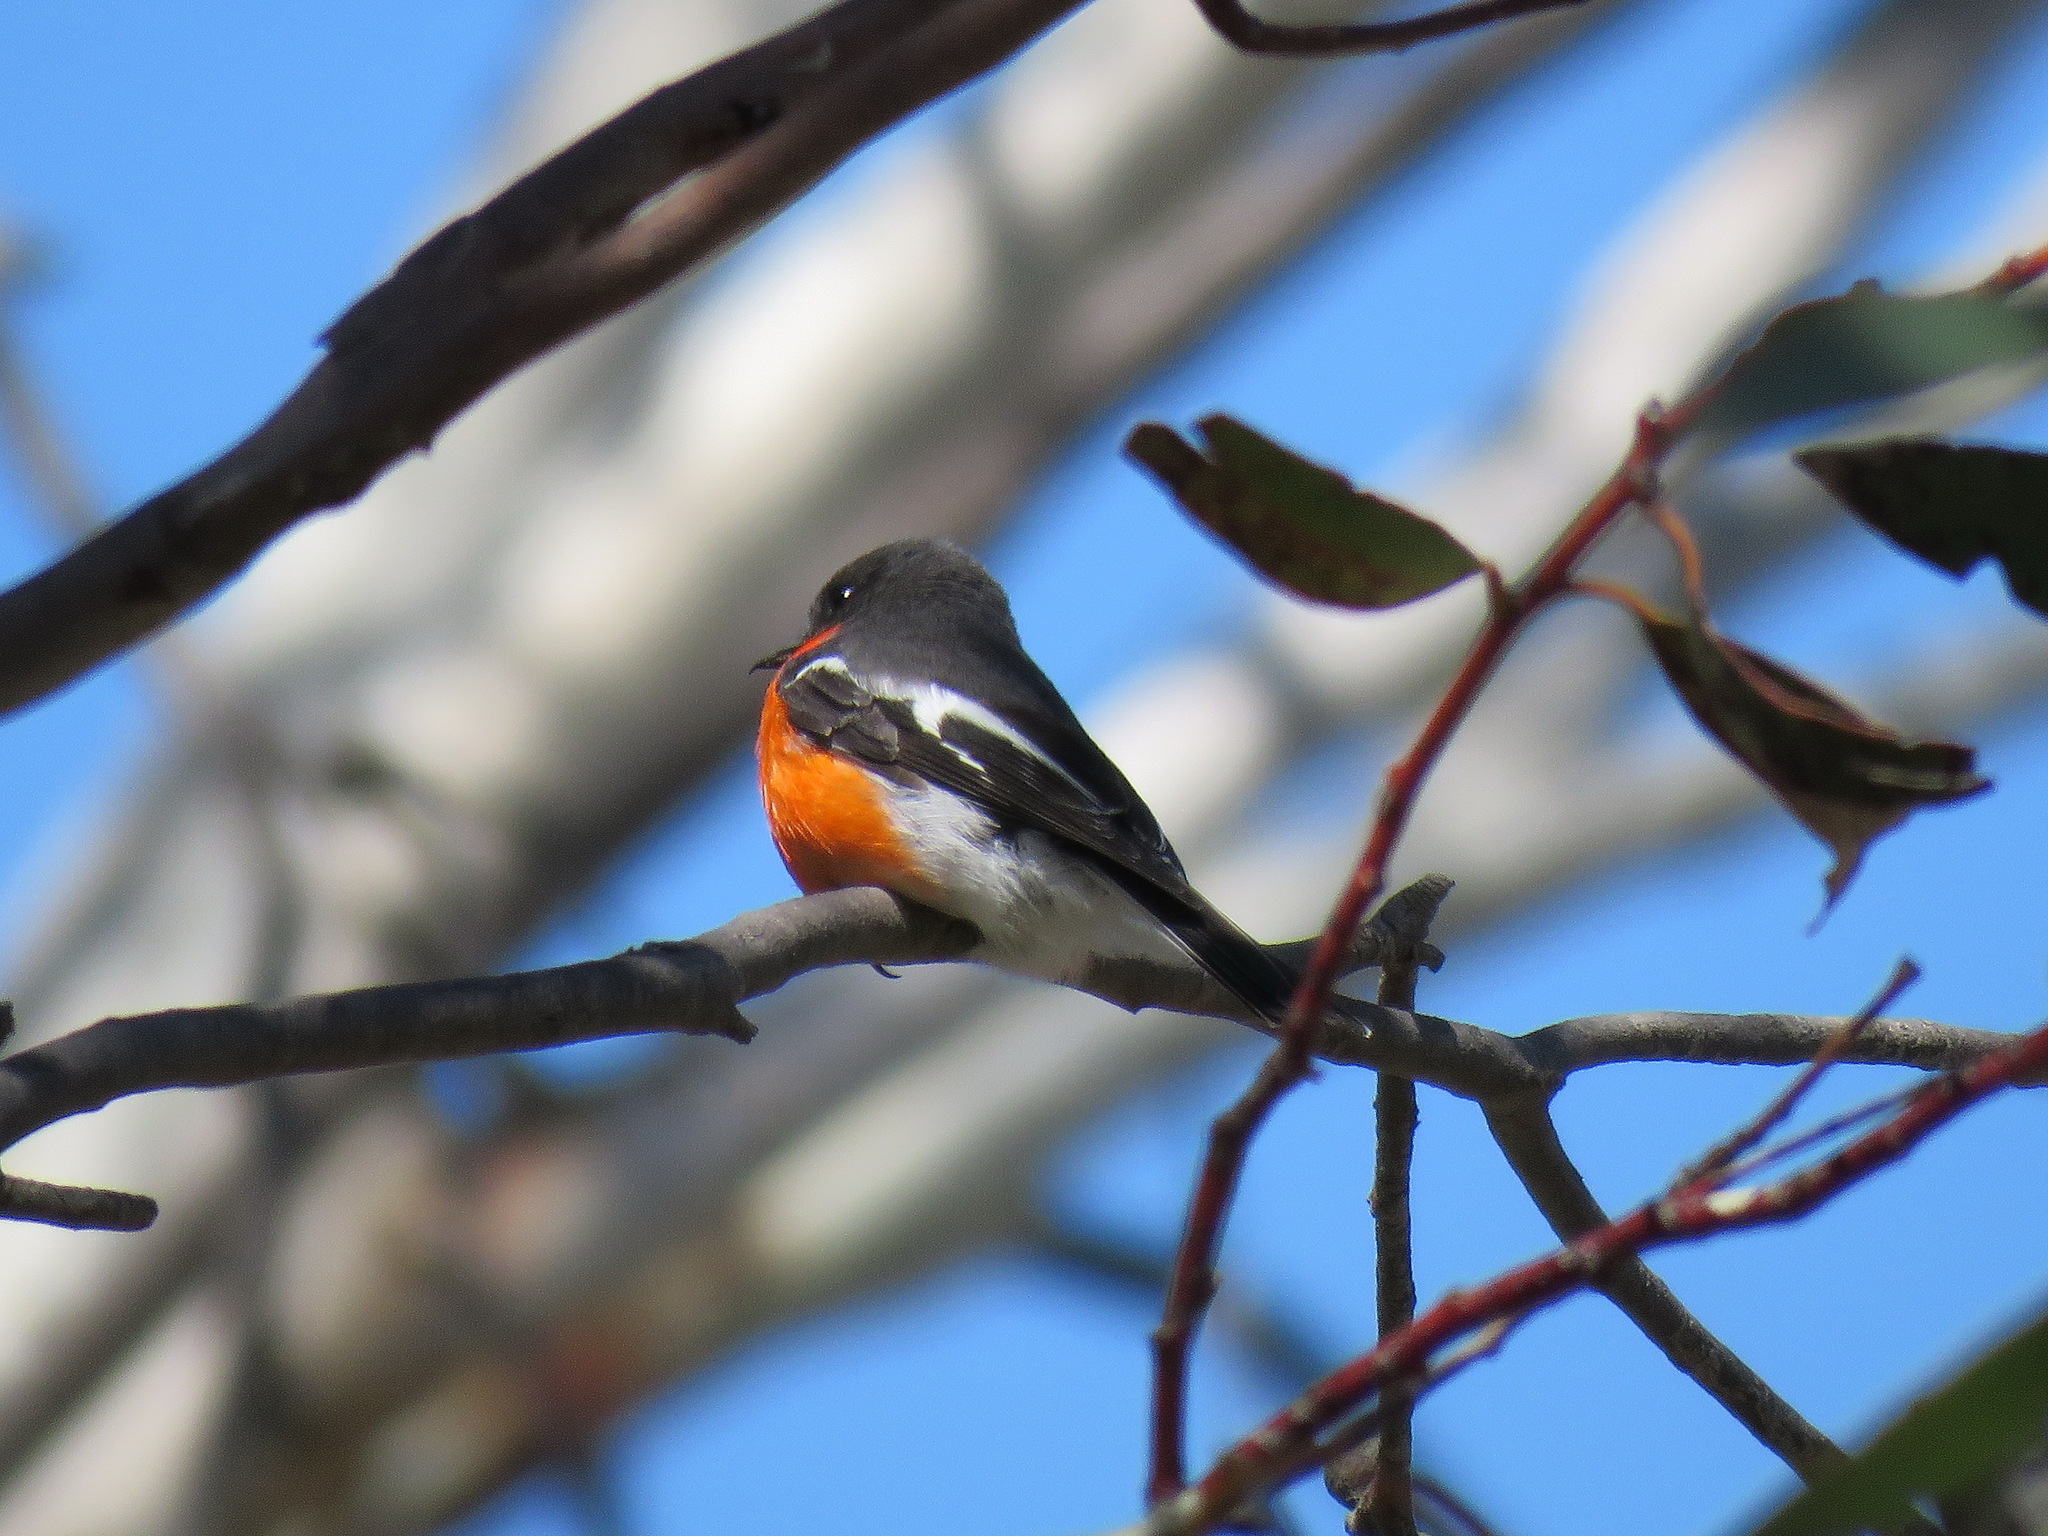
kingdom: Animalia
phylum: Chordata
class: Aves
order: Passeriformes
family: Petroicidae
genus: Petroica
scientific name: Petroica phoenicea
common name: Flame robin
